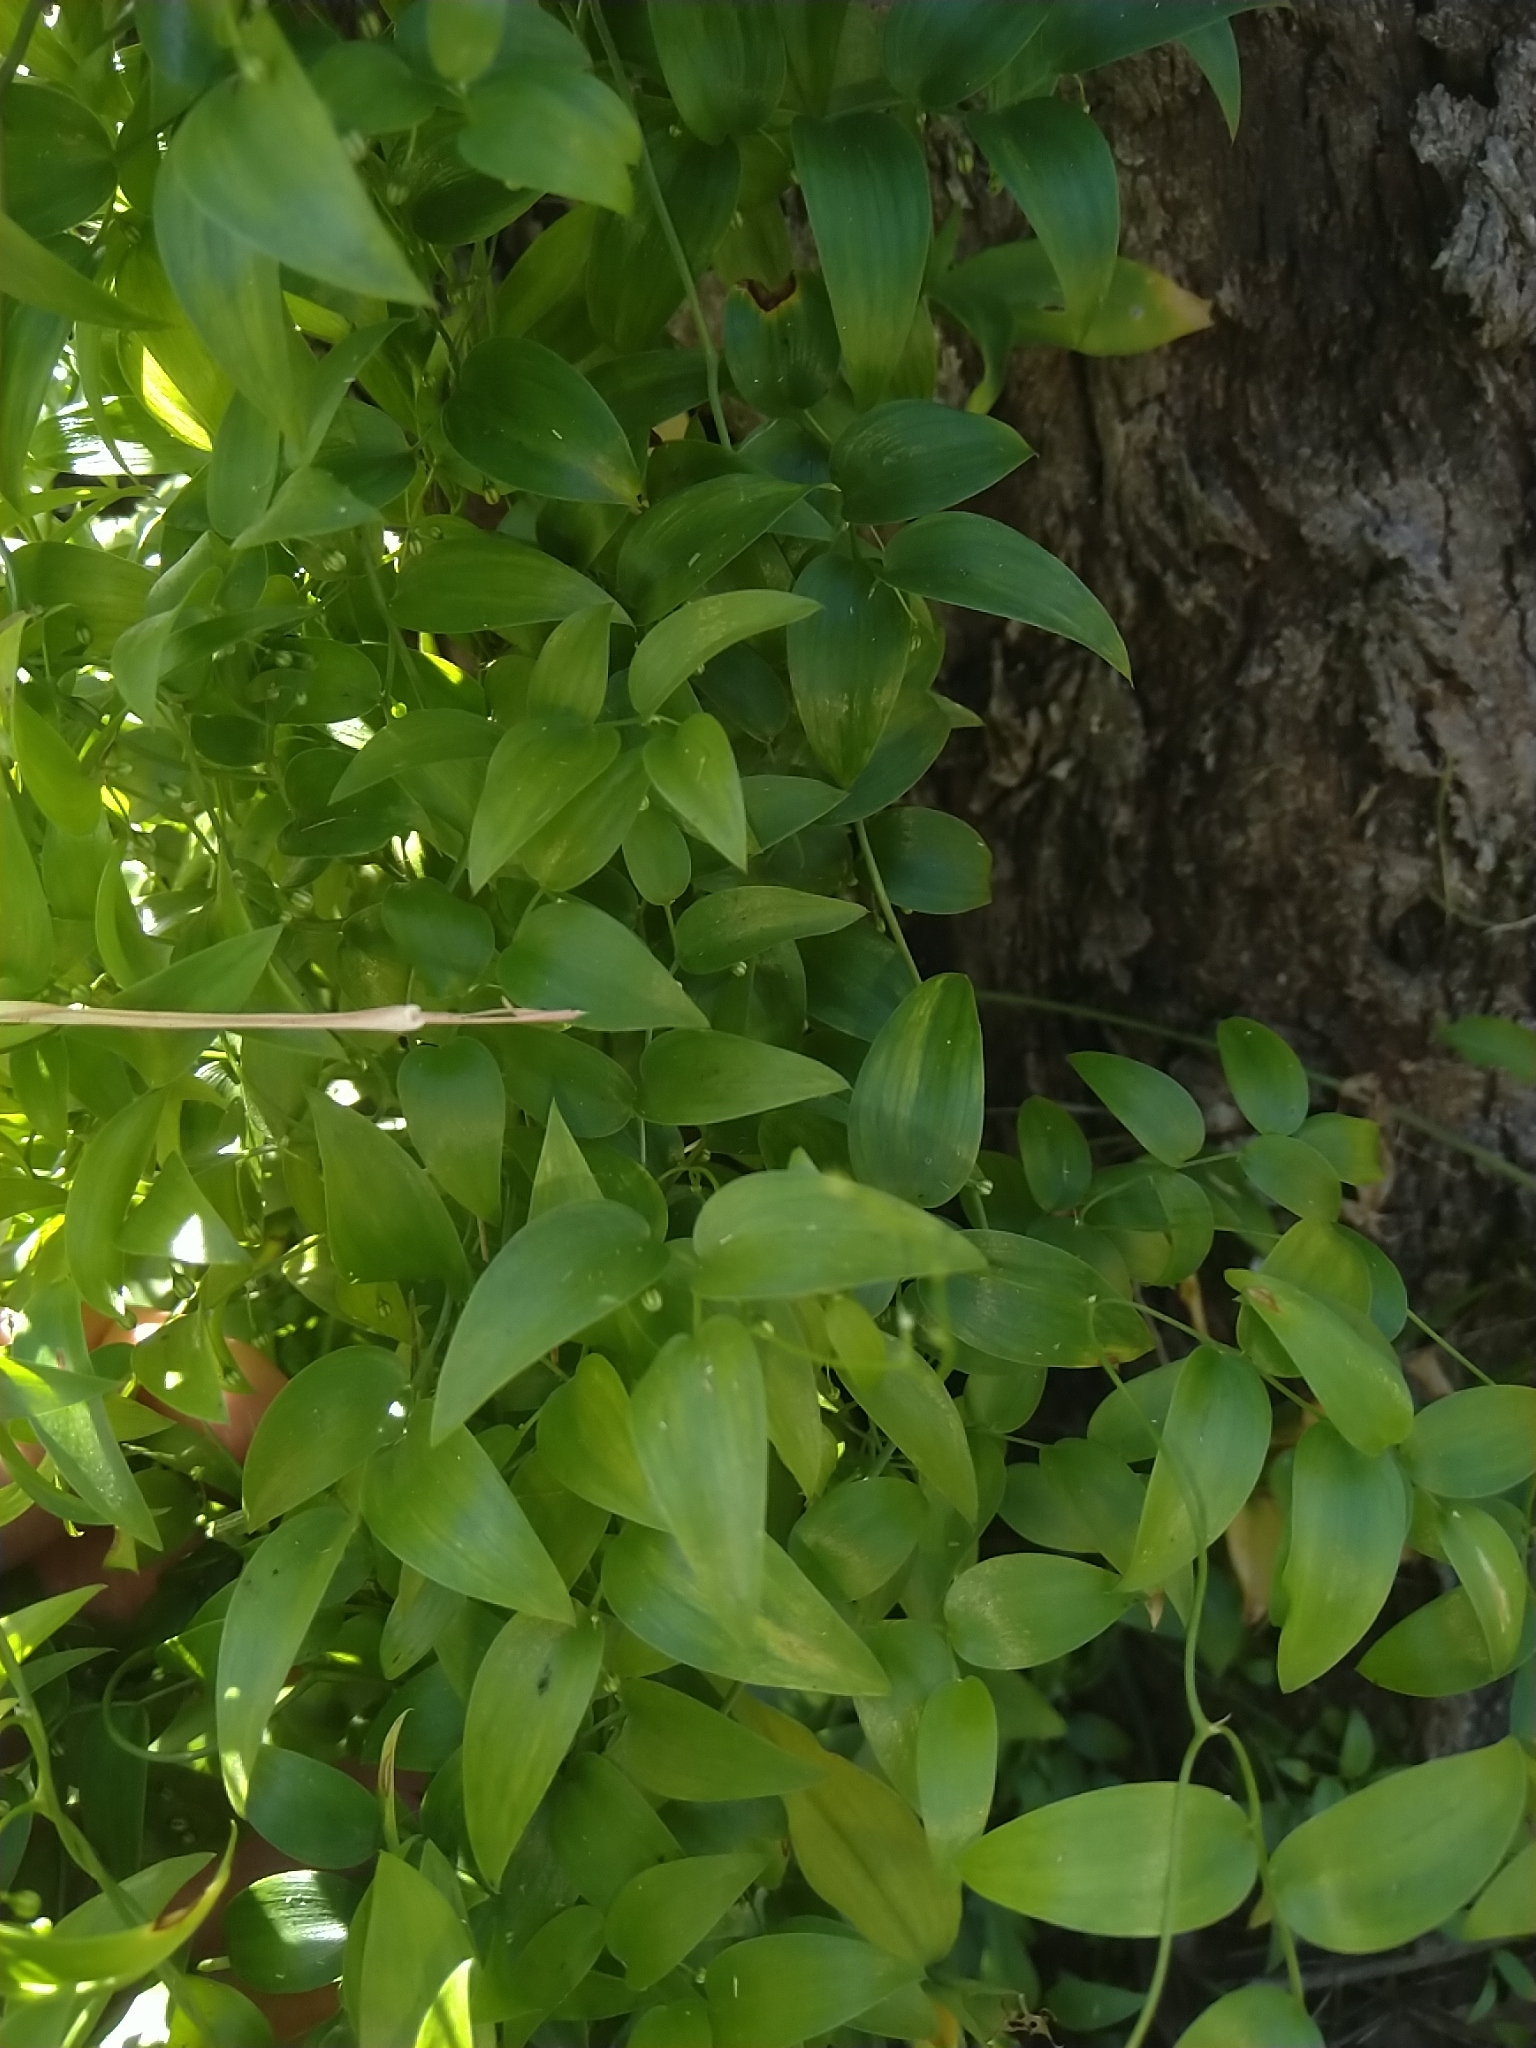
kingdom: Plantae
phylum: Tracheophyta
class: Liliopsida
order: Asparagales
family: Asparagaceae
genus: Asparagus
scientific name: Asparagus asparagoides
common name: African asparagus fern
